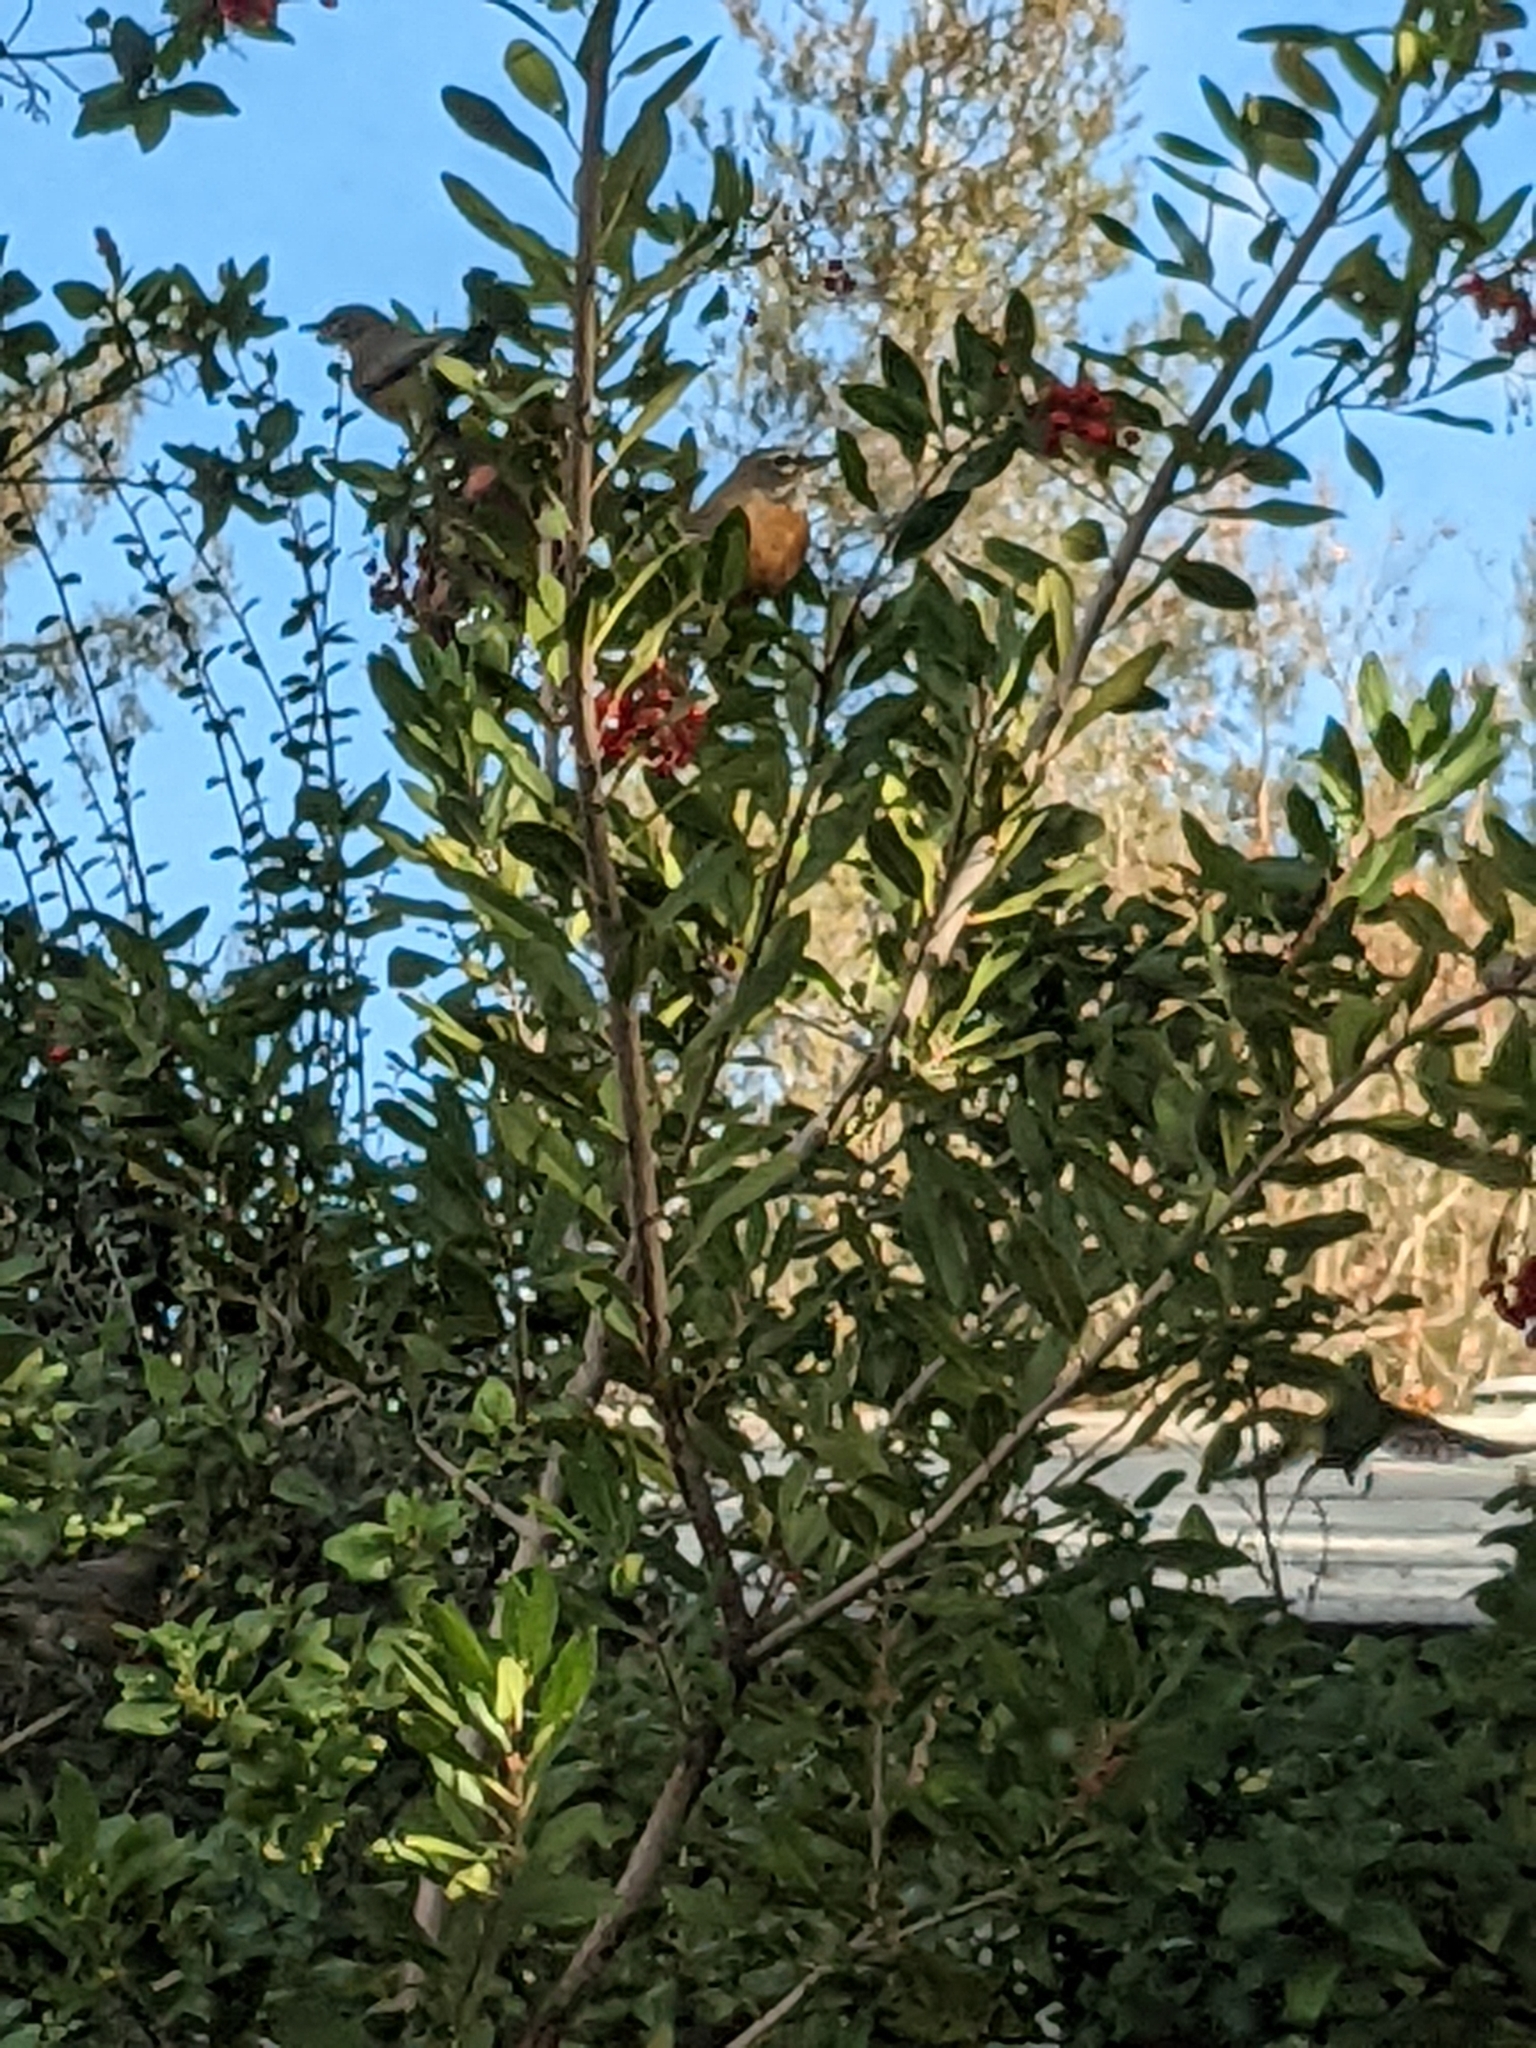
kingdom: Animalia
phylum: Chordata
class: Aves
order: Passeriformes
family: Turdidae
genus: Turdus
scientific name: Turdus migratorius
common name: American robin
